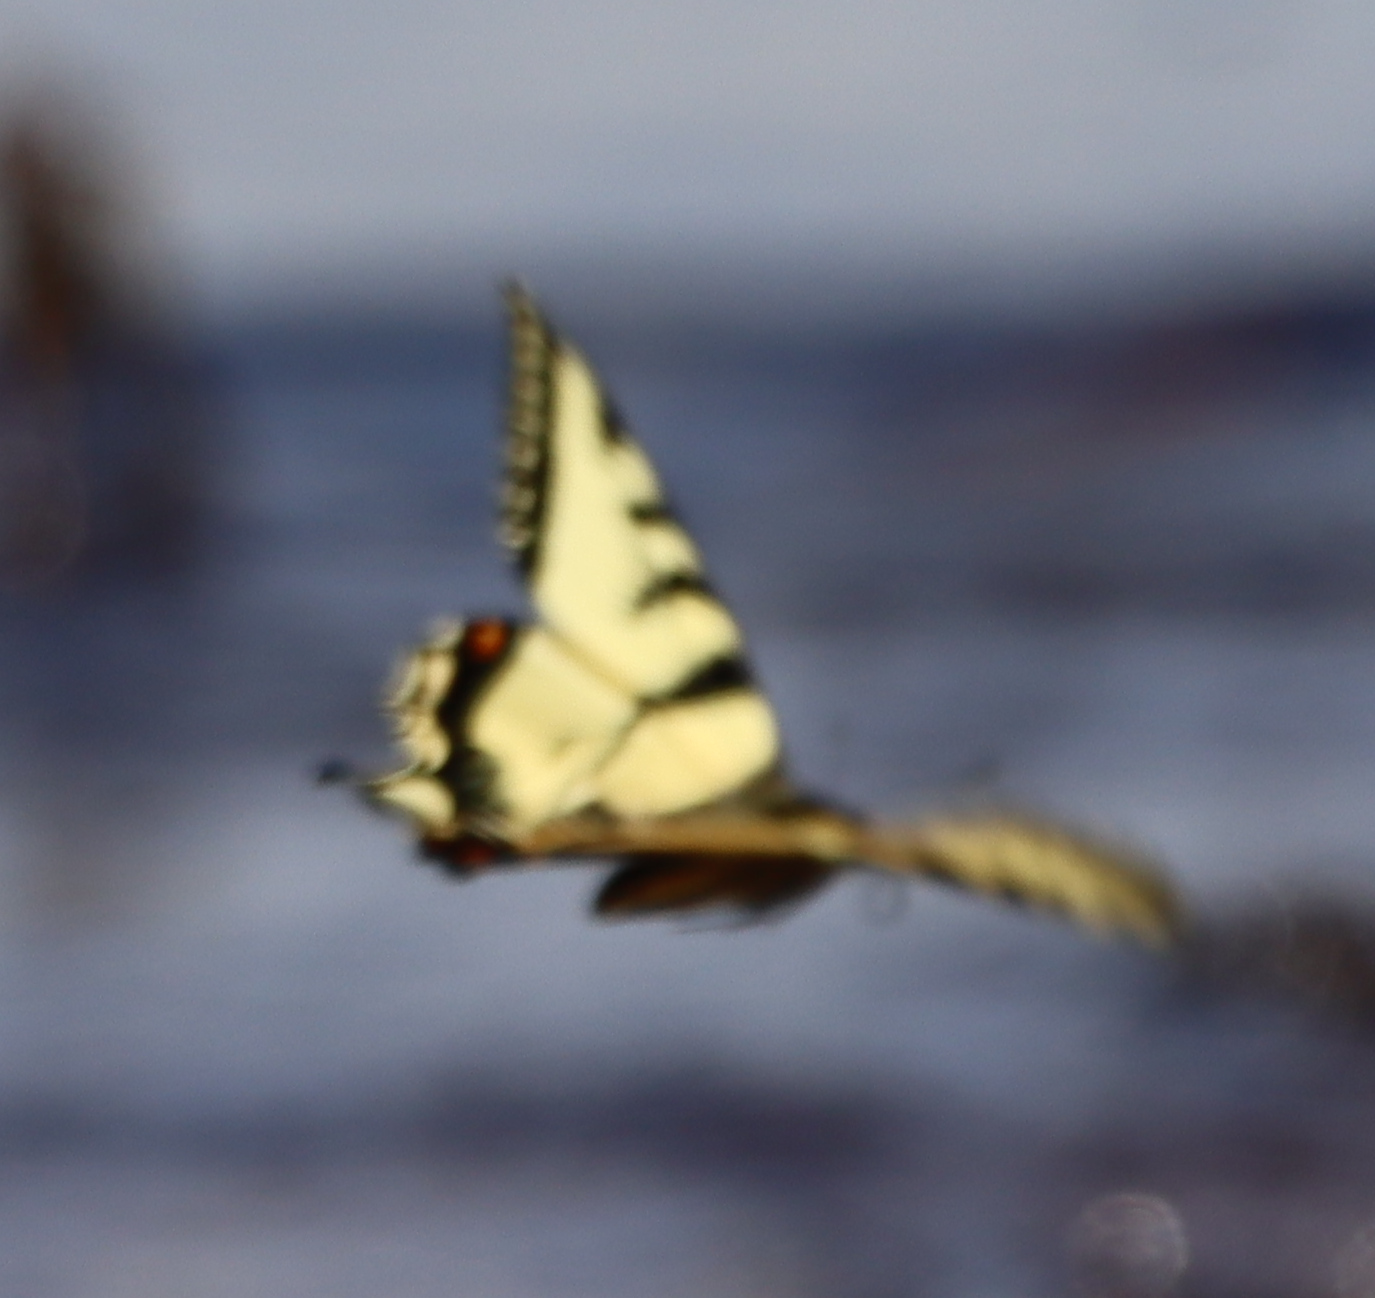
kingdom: Animalia
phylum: Arthropoda
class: Insecta
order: Lepidoptera
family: Papilionidae
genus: Papilio
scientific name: Papilio canadensis
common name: Canadian tiger swallowtail
